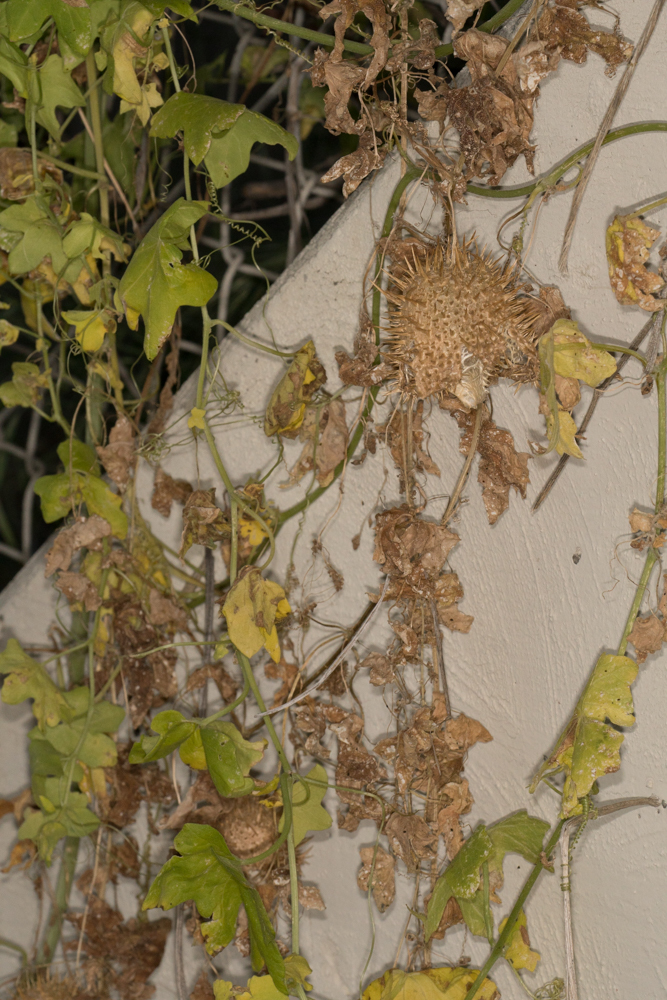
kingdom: Plantae
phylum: Tracheophyta
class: Magnoliopsida
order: Cucurbitales
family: Cucurbitaceae
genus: Marah
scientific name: Marah macrocarpa
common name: Cucamonga manroot
